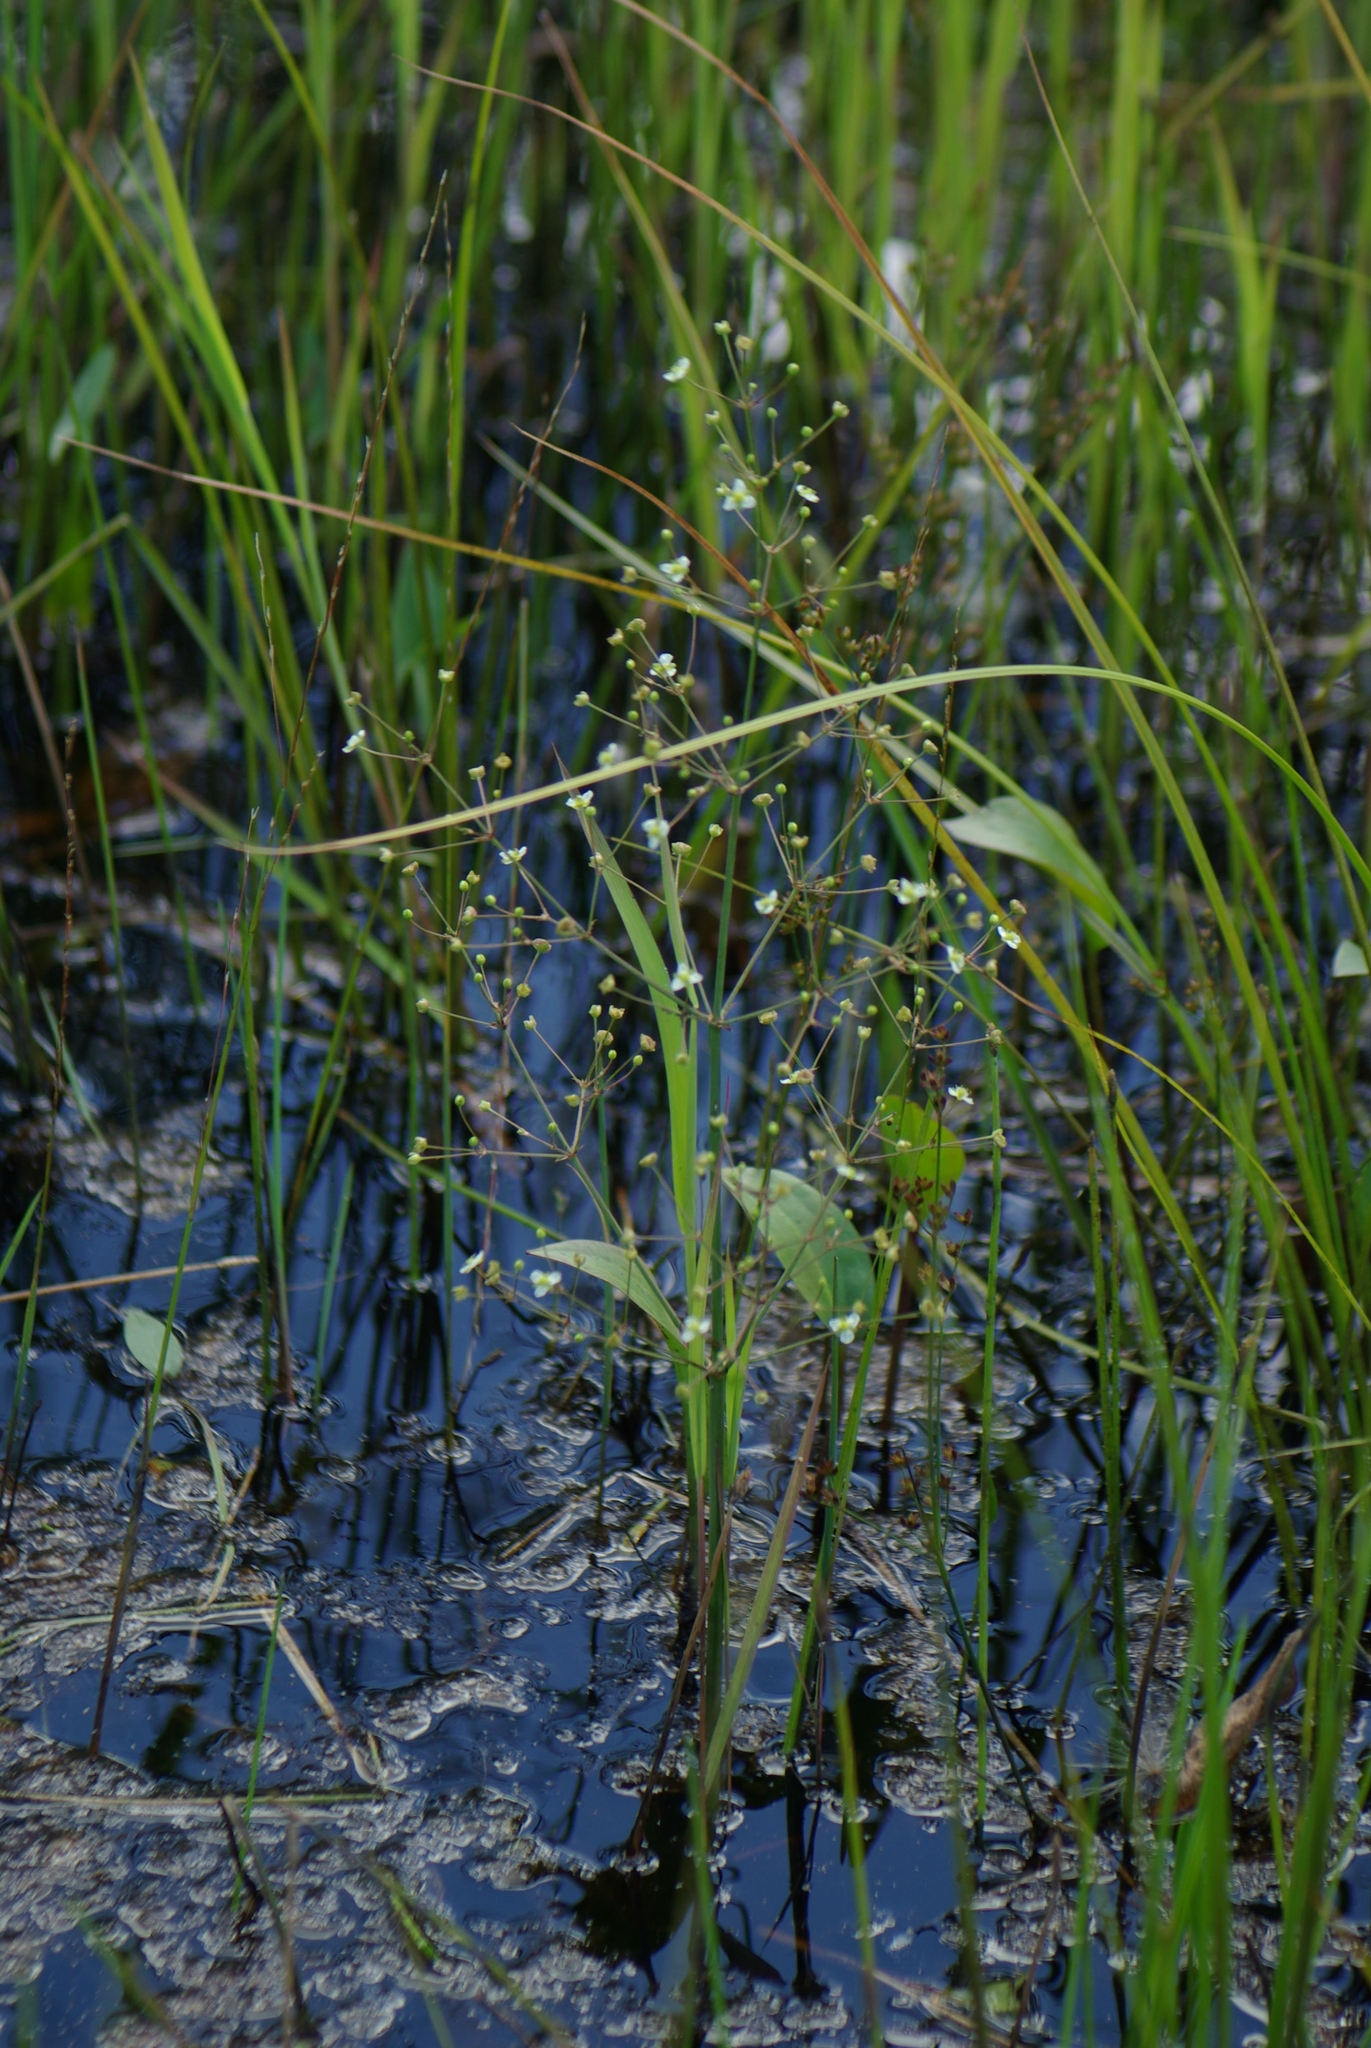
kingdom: Plantae
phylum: Tracheophyta
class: Liliopsida
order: Alismatales
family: Alismataceae
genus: Alisma
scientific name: Alisma triviale
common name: Northern water-plantain
